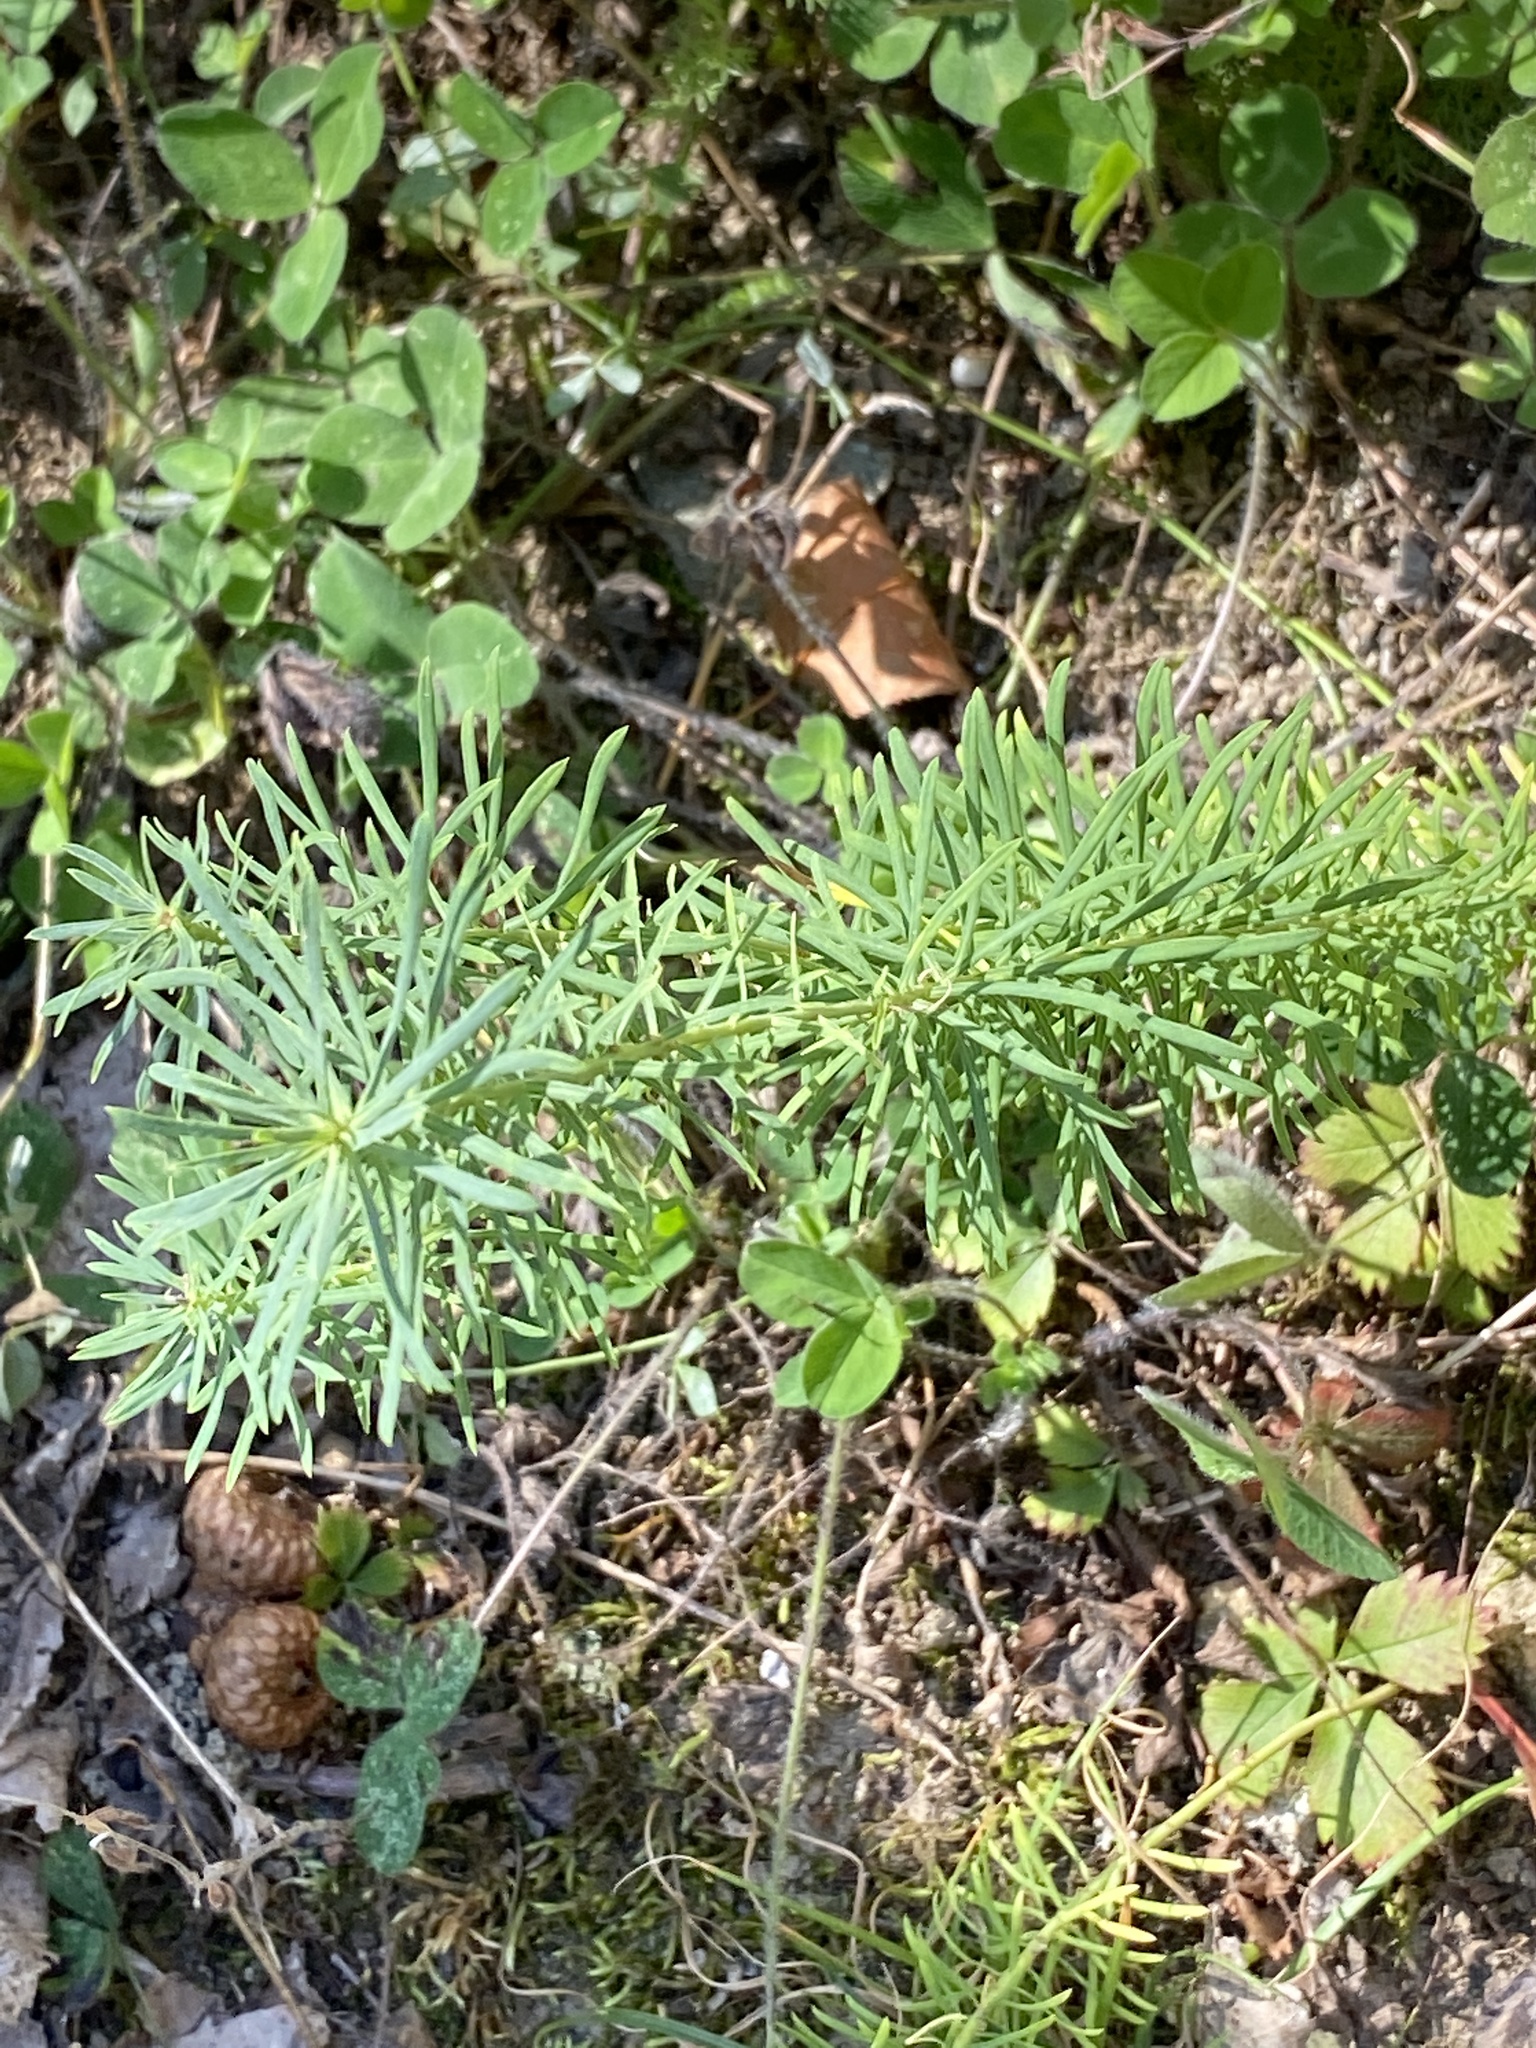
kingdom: Plantae
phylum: Tracheophyta
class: Magnoliopsida
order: Malpighiales
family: Euphorbiaceae
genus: Euphorbia
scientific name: Euphorbia cyparissias
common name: Cypress spurge
